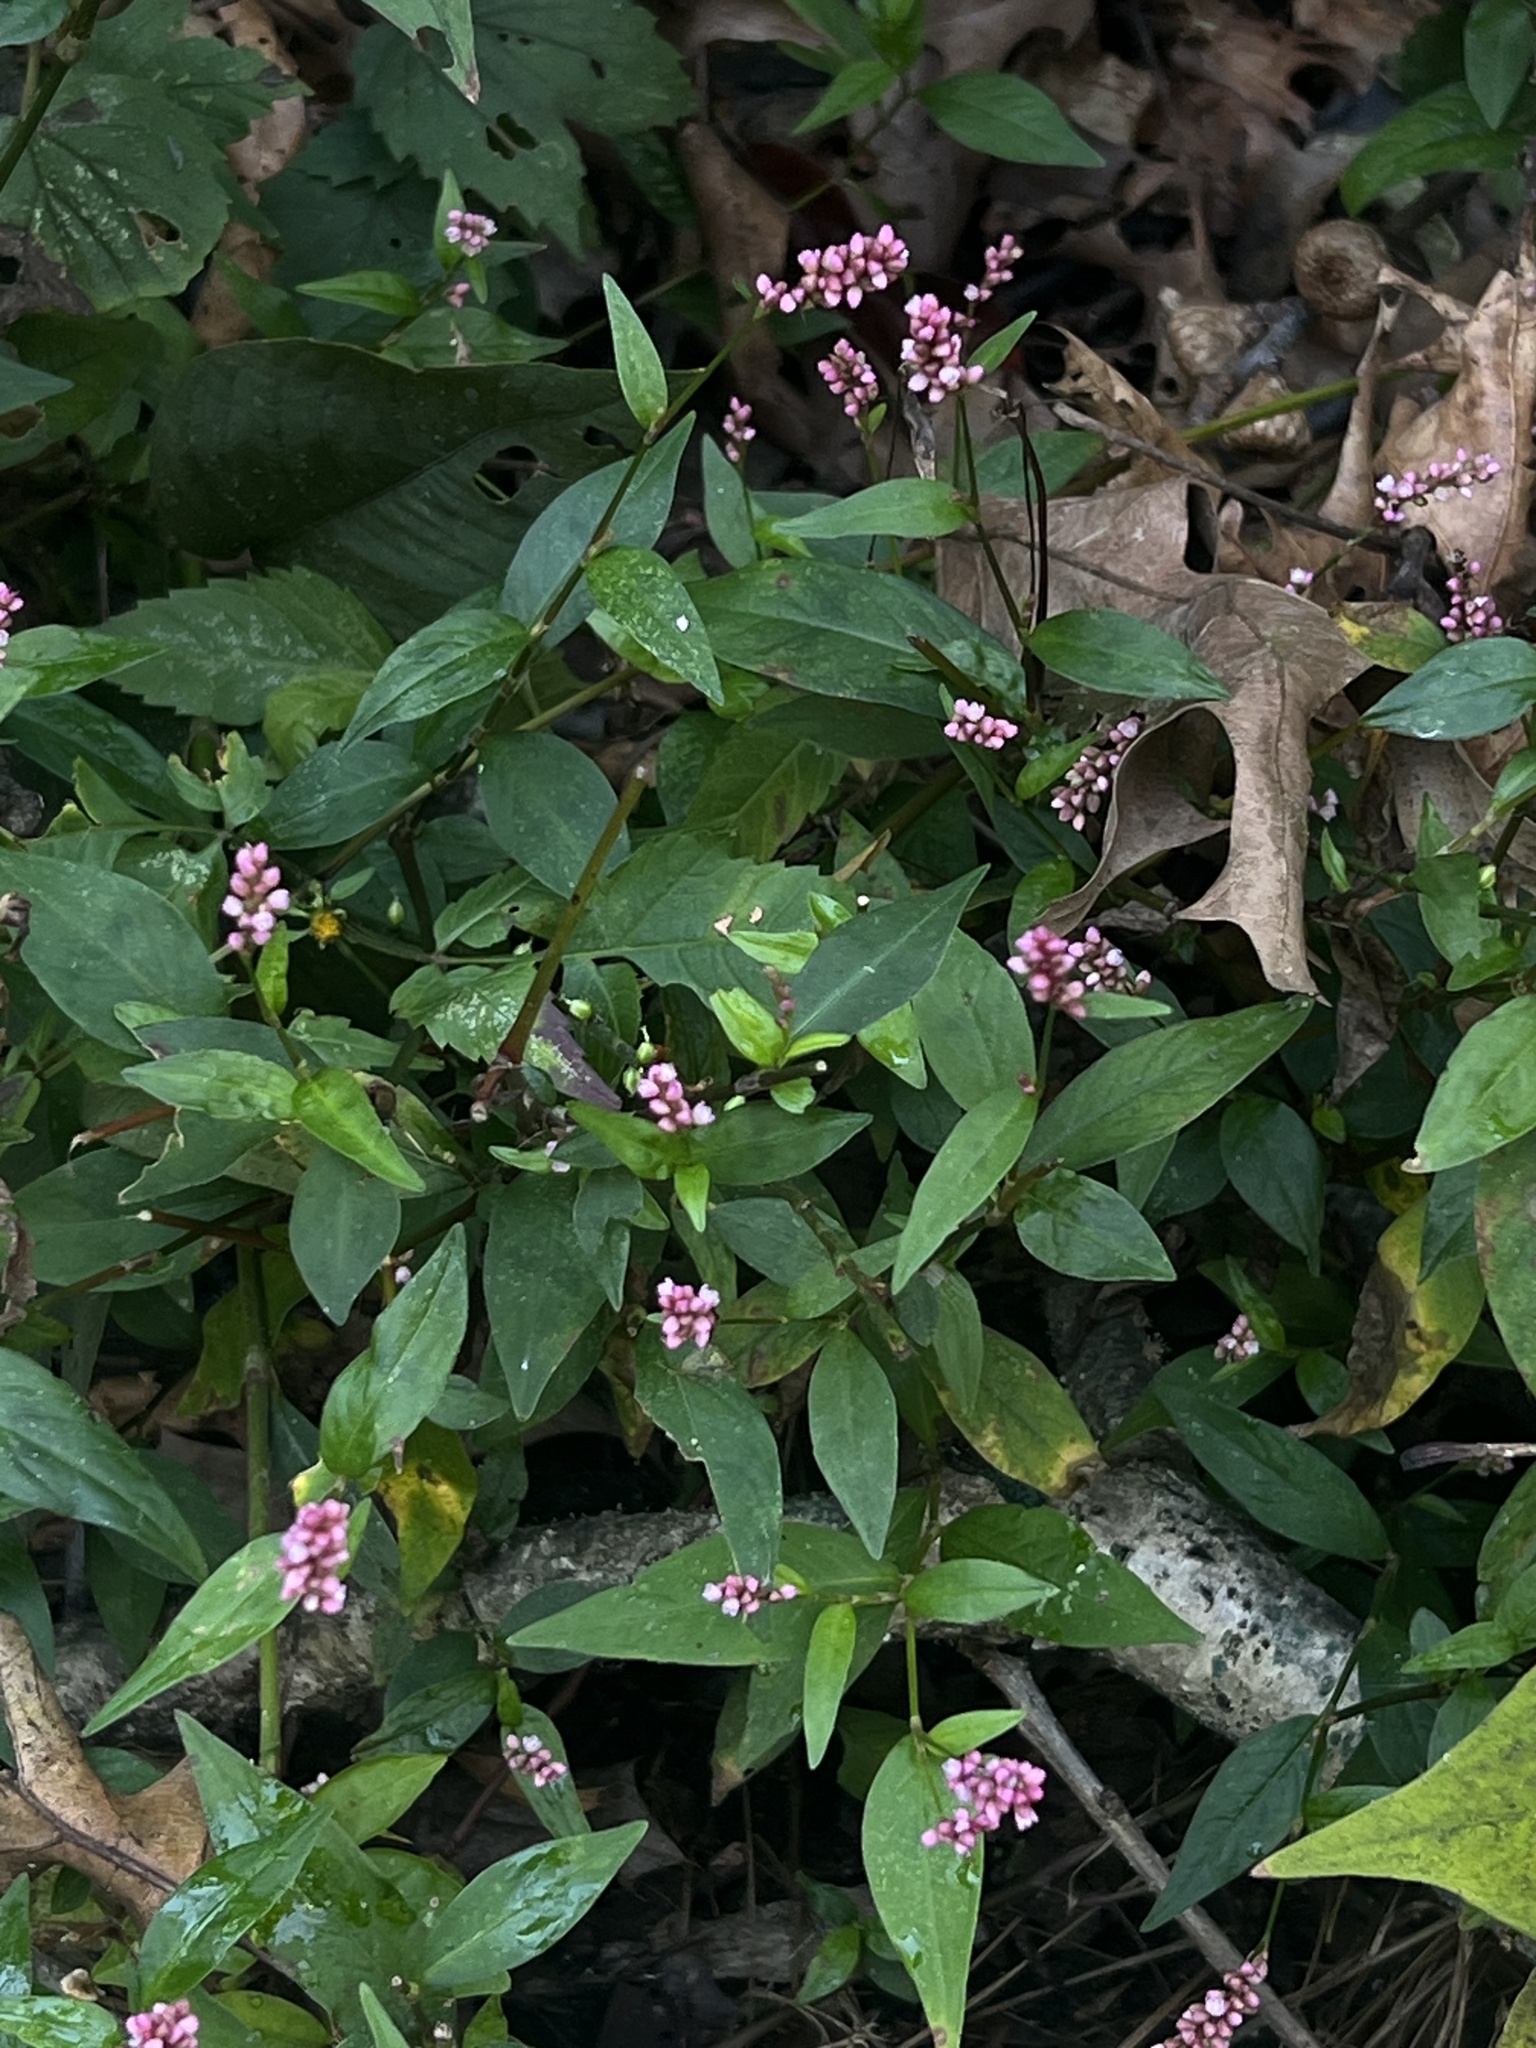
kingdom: Plantae
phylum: Tracheophyta
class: Magnoliopsida
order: Caryophyllales
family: Polygonaceae
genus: Persicaria
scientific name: Persicaria longiseta
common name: Bristly lady's-thumb
